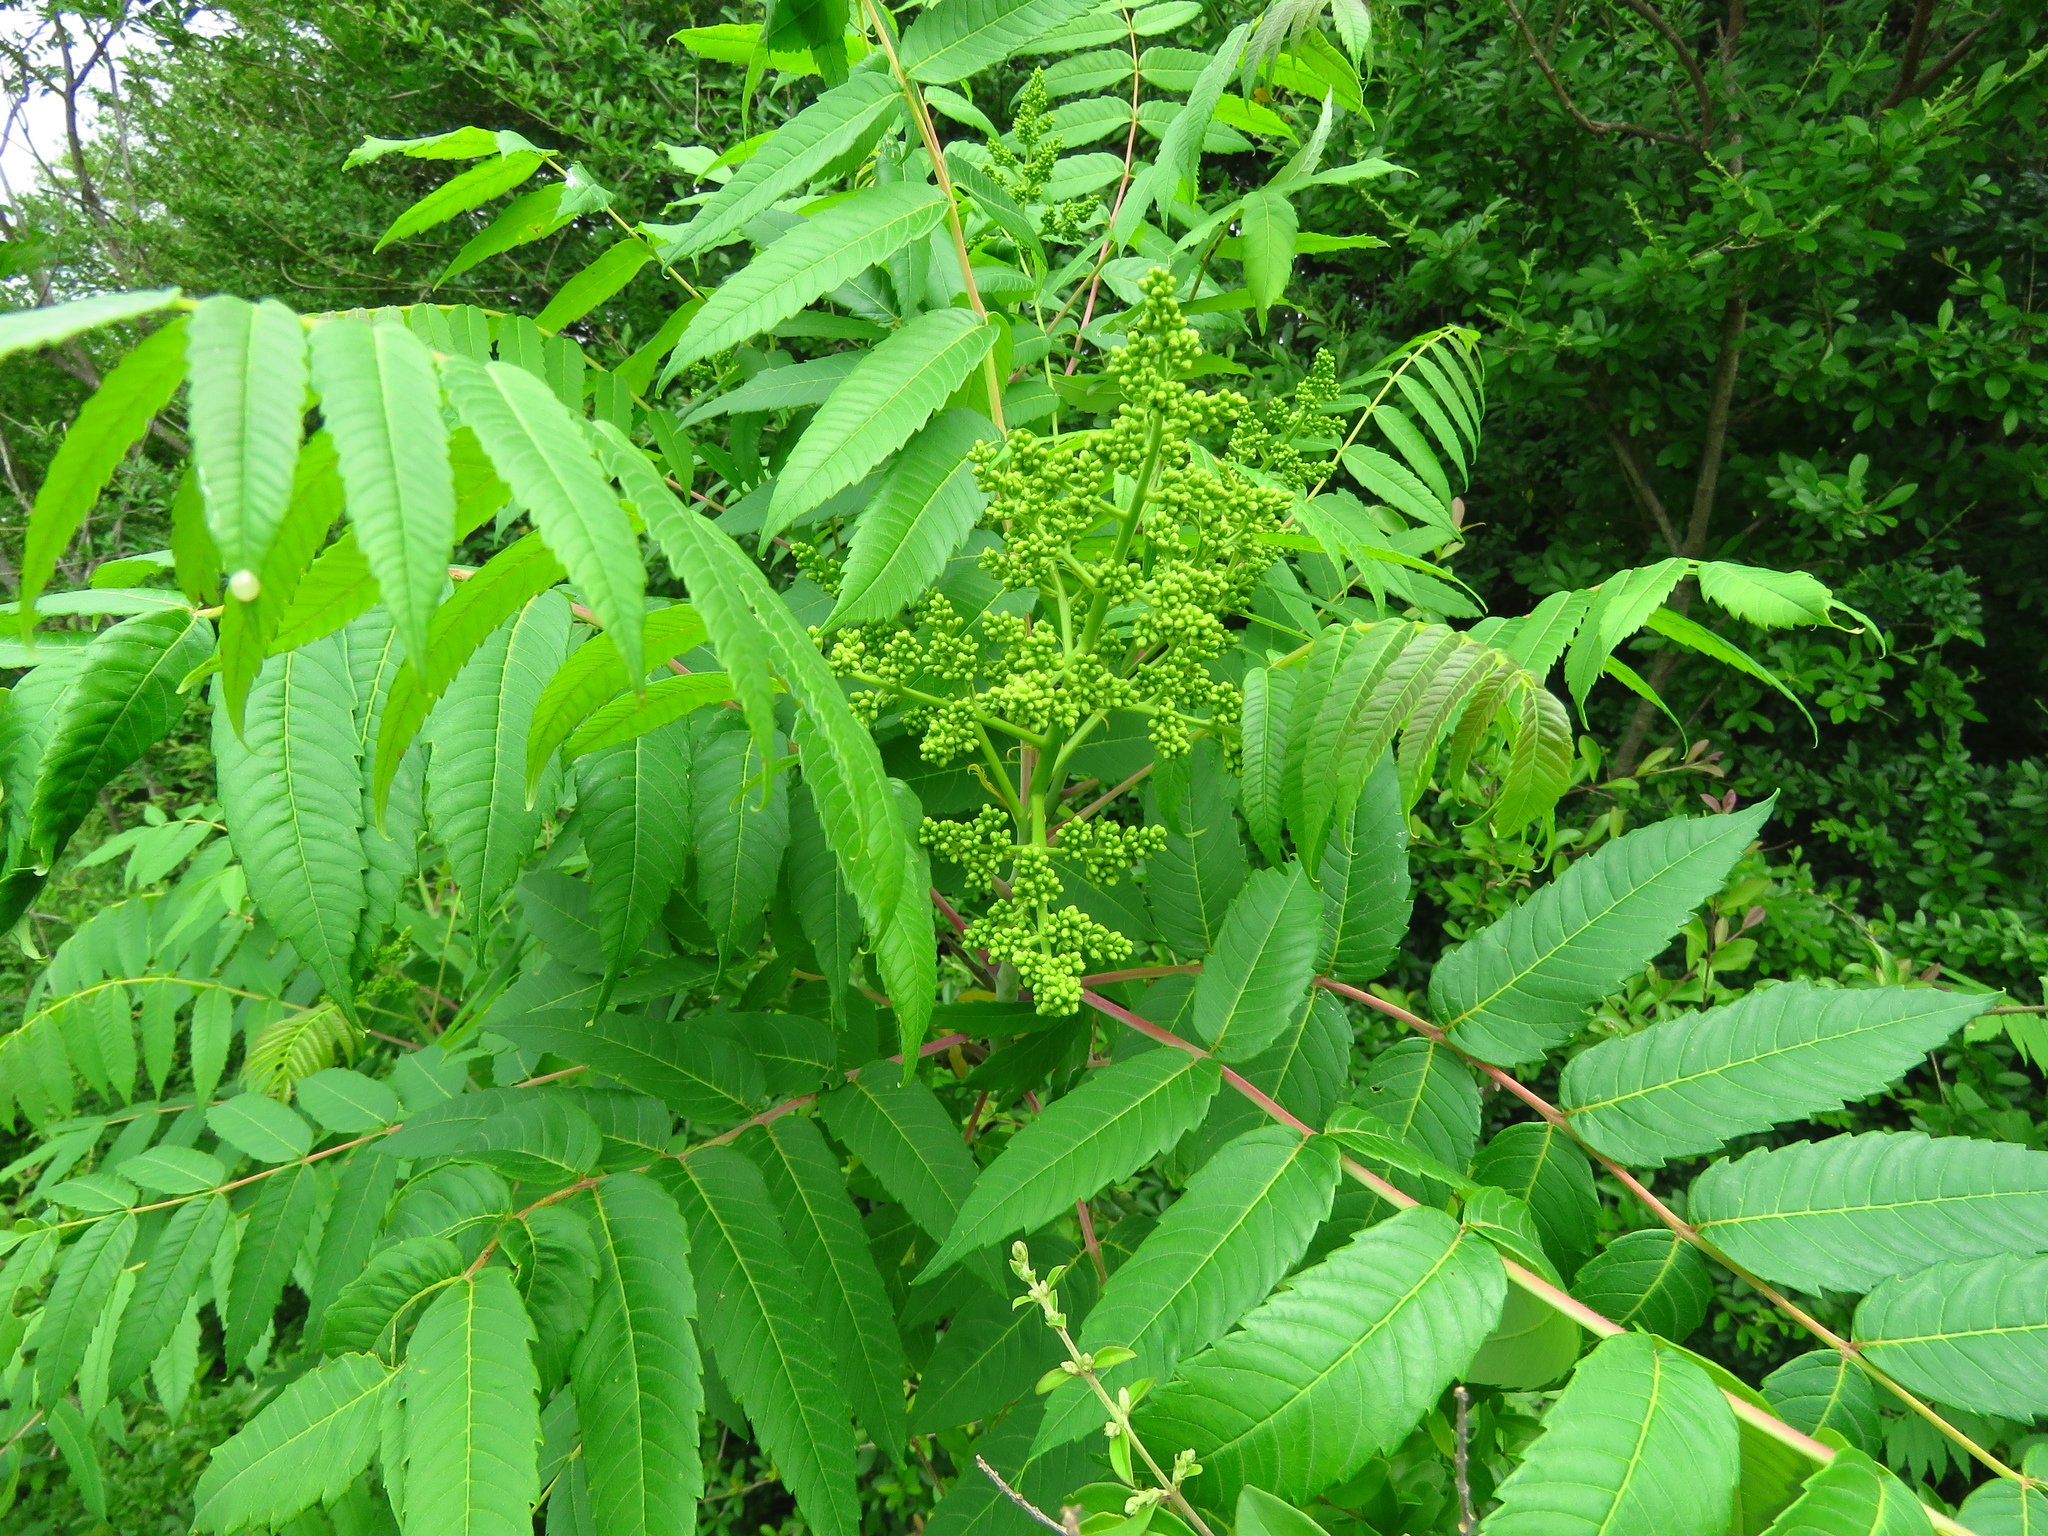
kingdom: Plantae
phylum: Tracheophyta
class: Magnoliopsida
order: Sapindales
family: Anacardiaceae
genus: Rhus
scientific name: Rhus glabra
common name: Scarlet sumac
